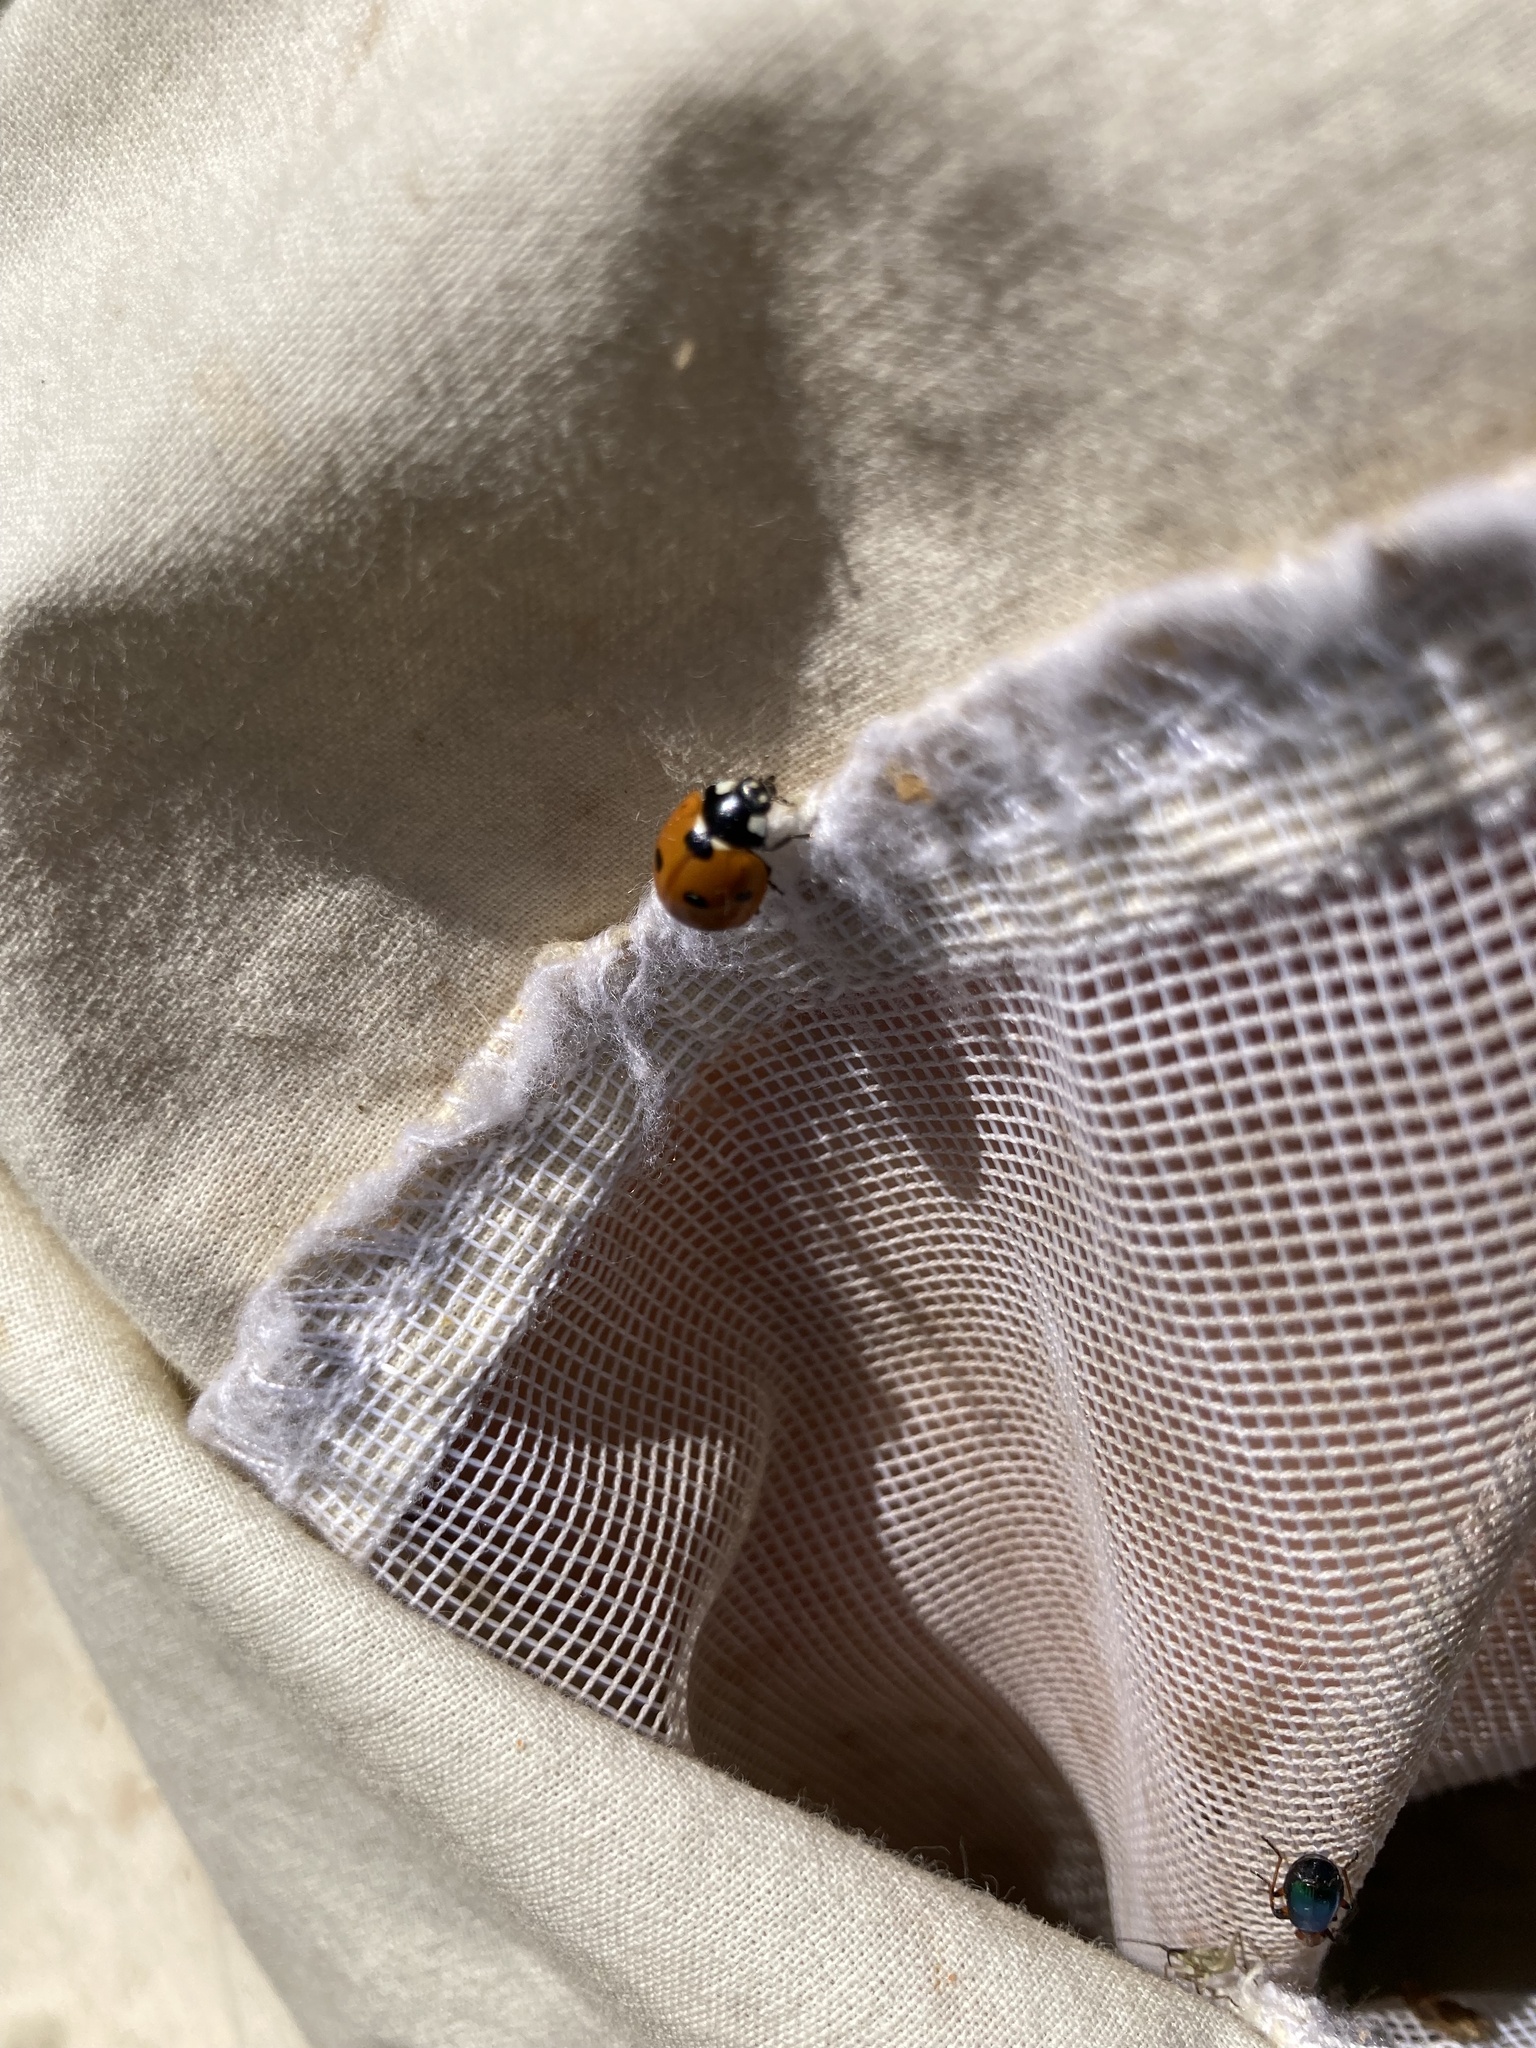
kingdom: Animalia
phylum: Arthropoda
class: Insecta
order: Coleoptera
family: Coccinellidae
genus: Coccinella
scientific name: Coccinella septempunctata
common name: Sevenspotted lady beetle
